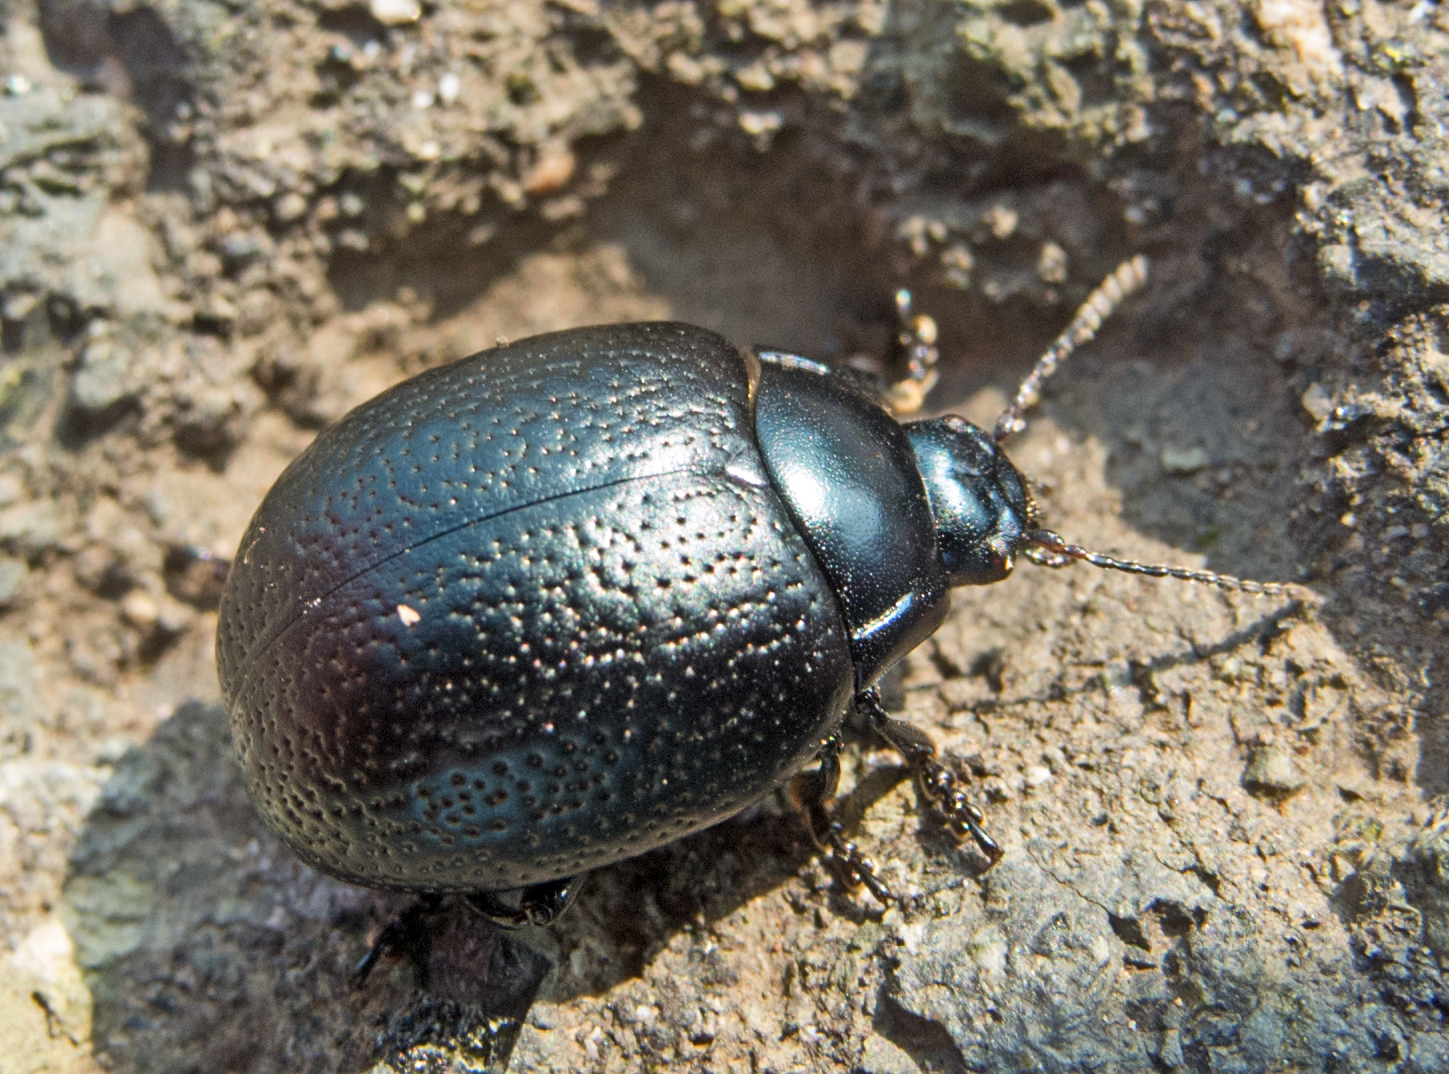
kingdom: Animalia
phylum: Arthropoda
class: Insecta
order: Coleoptera
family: Chrysomelidae
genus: Chrysolina
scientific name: Chrysolina vernalis
